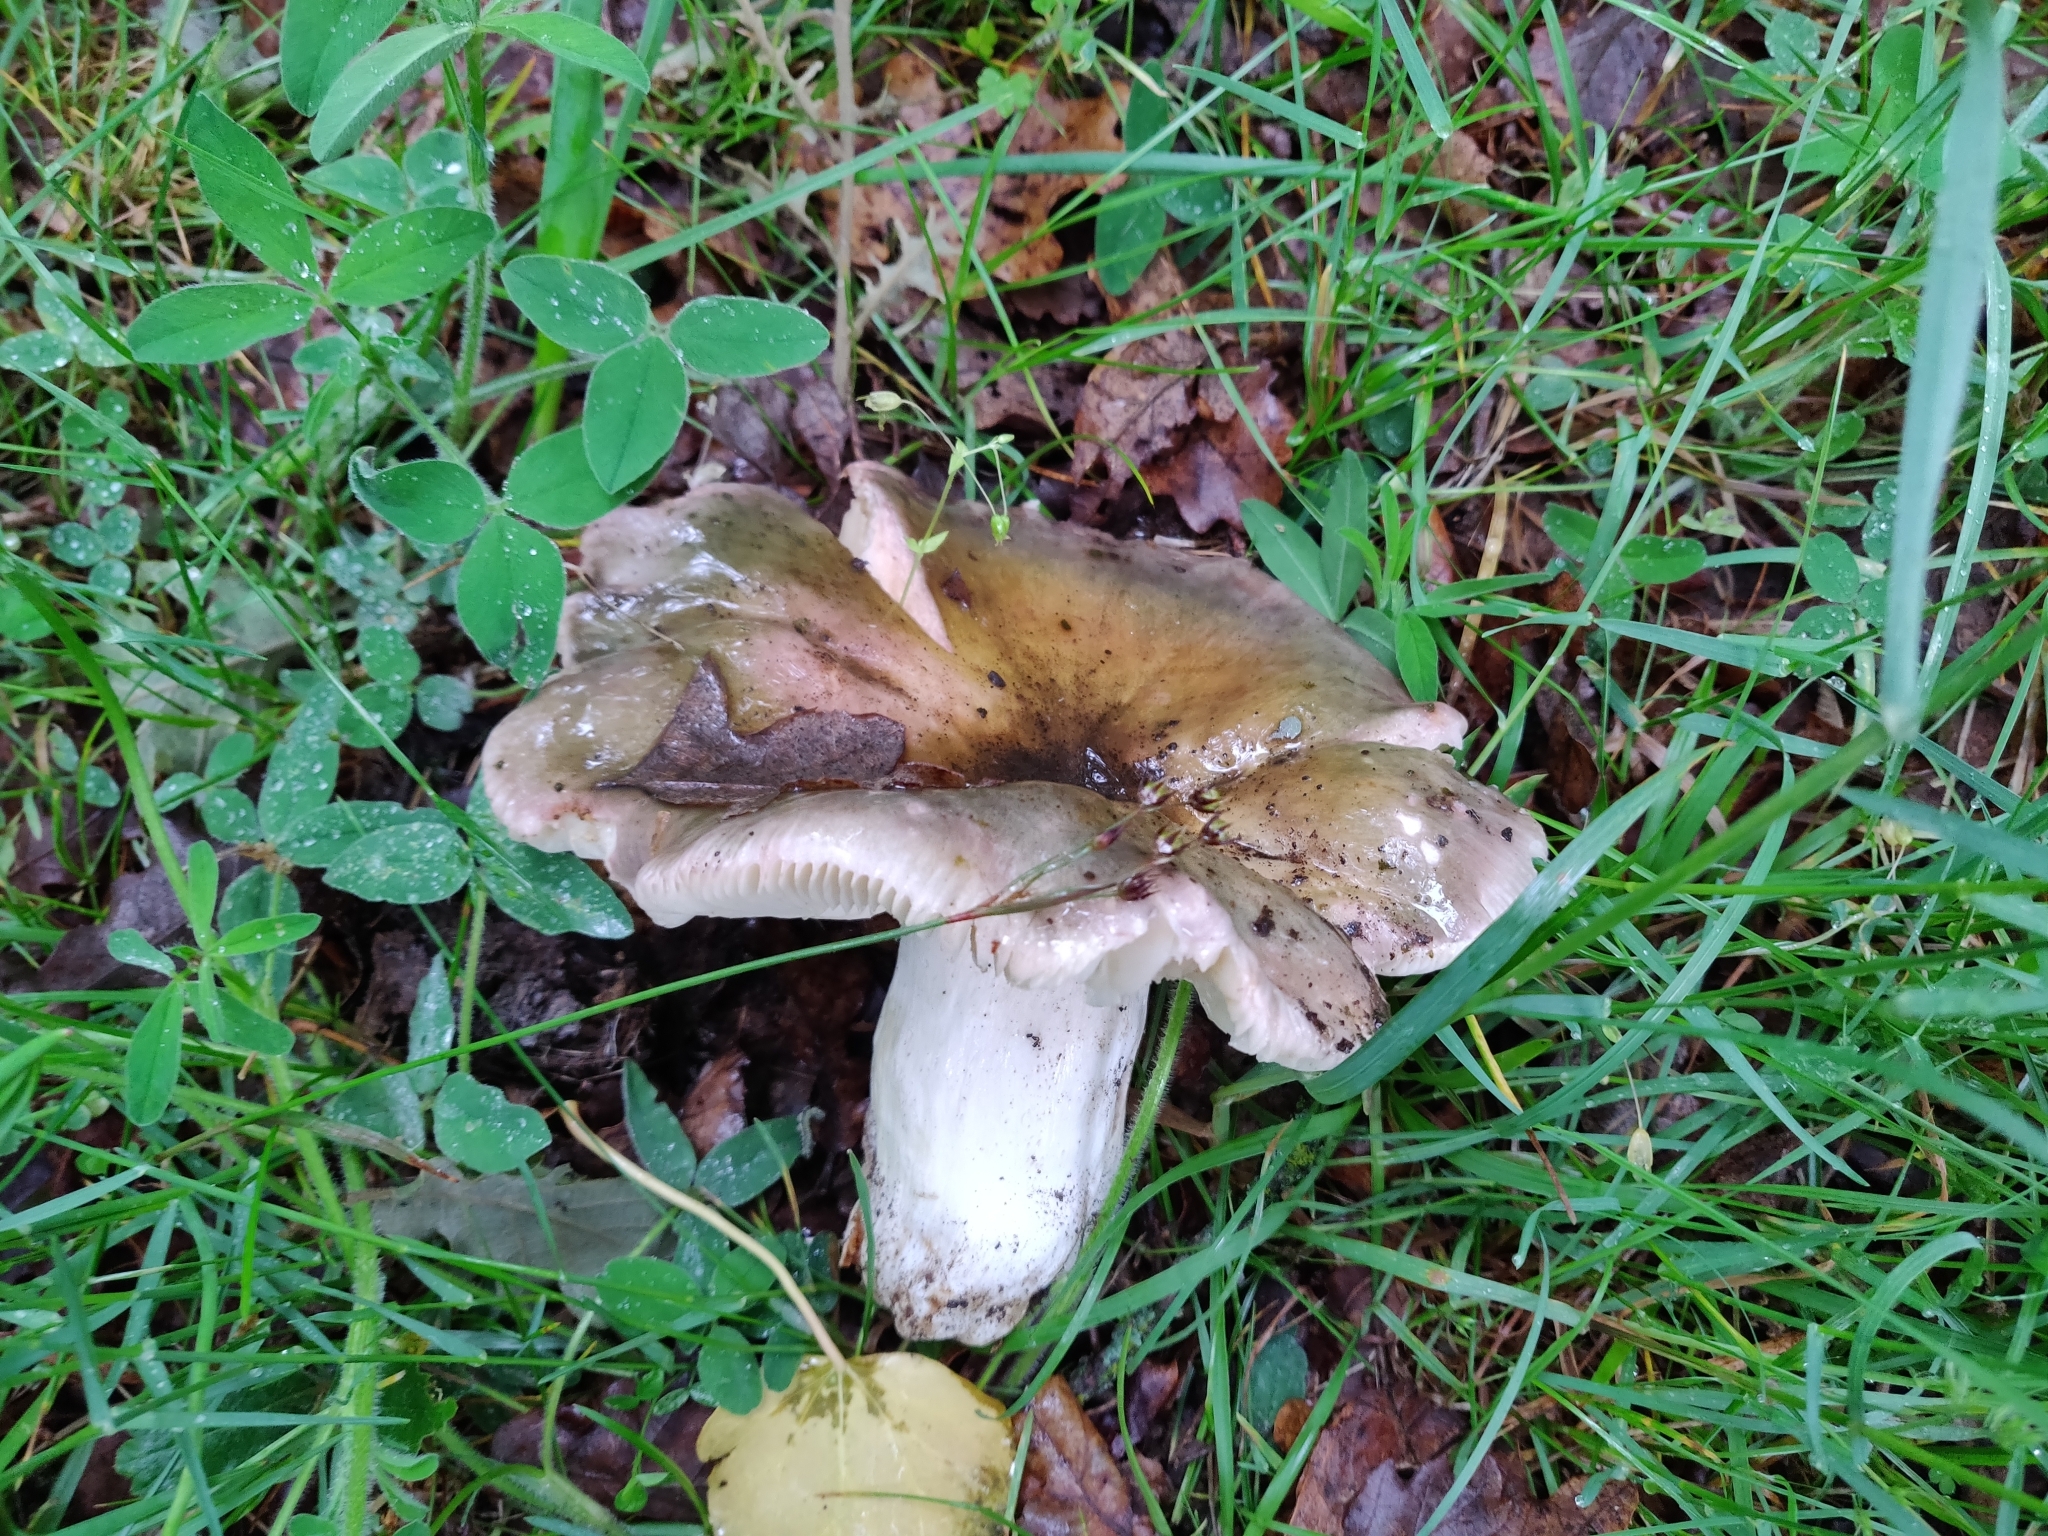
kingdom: Fungi
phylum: Basidiomycota
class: Agaricomycetes
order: Russulales
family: Russulaceae
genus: Russula
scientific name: Russula cyanoxantha
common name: Charcoal burner
